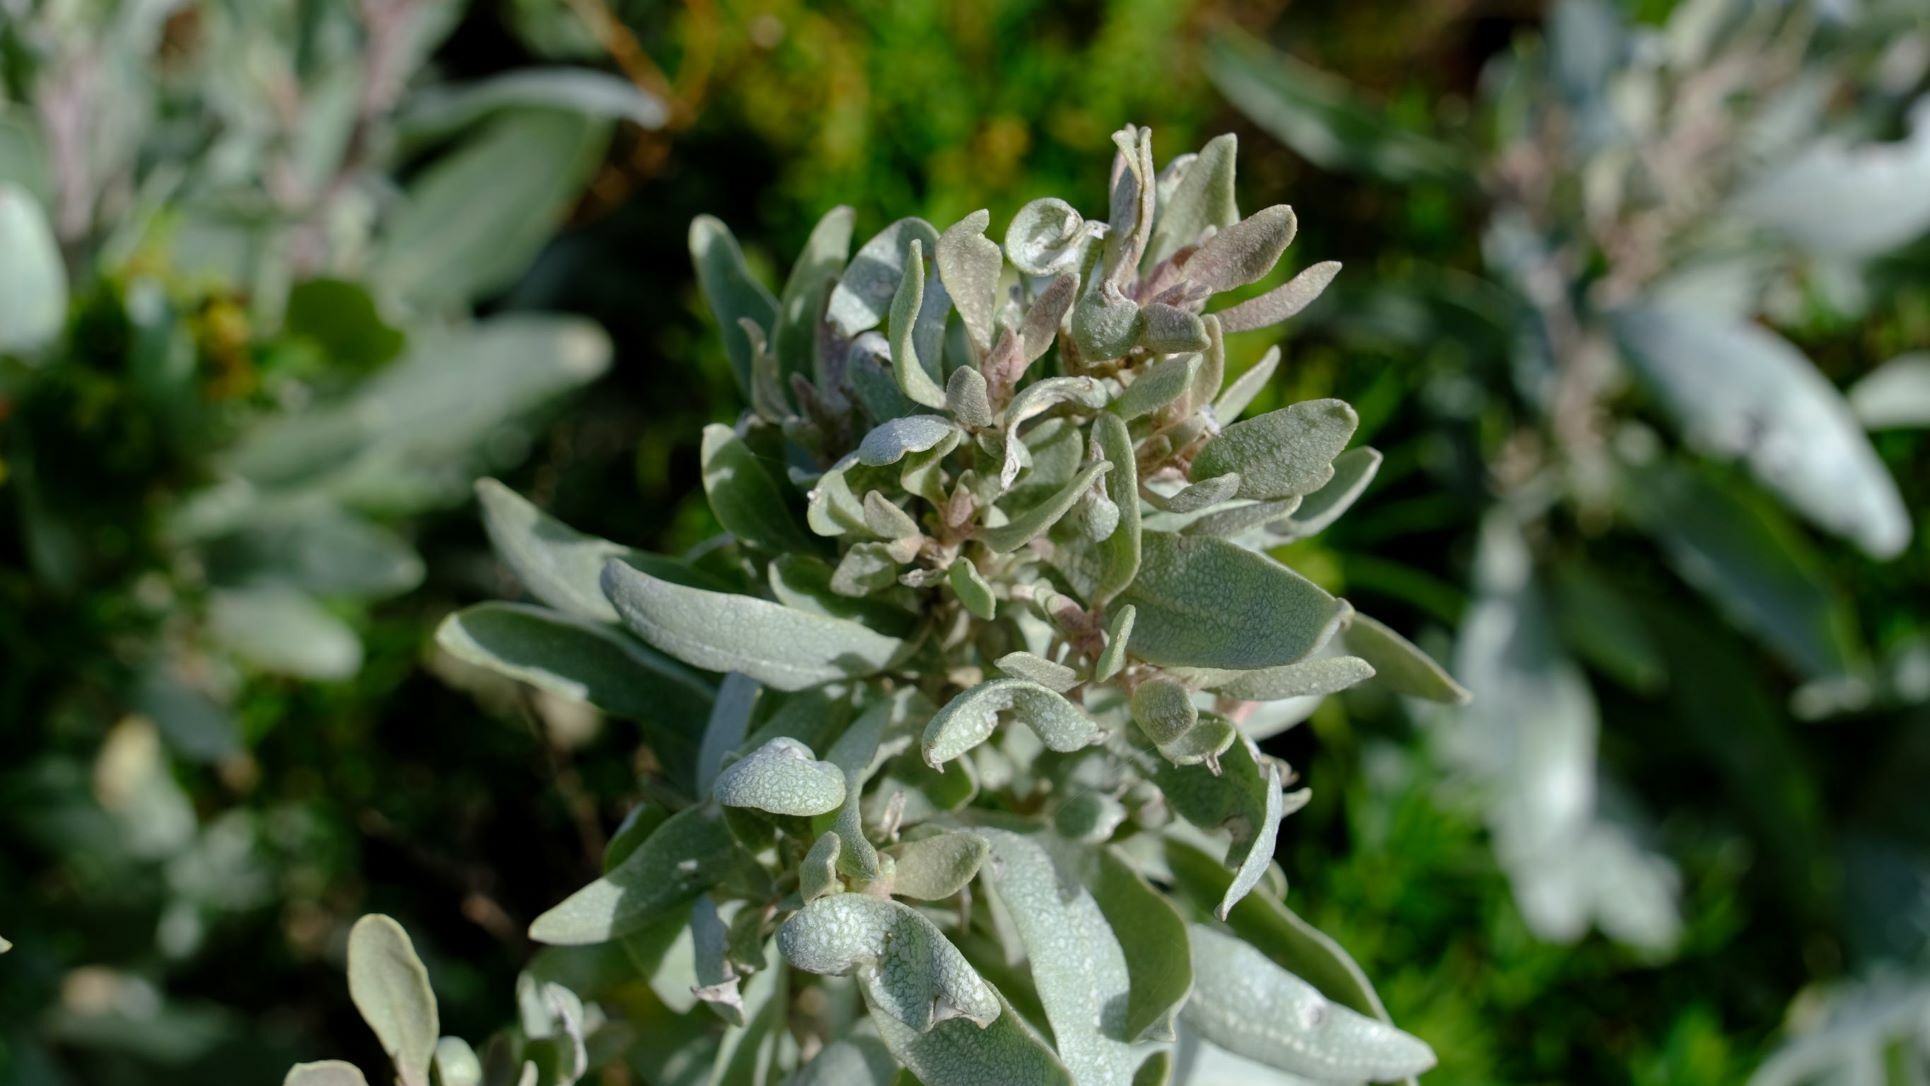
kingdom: Plantae
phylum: Tracheophyta
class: Magnoliopsida
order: Caryophyllales
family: Amaranthaceae
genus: Atriplex
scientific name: Atriplex cinerea
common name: Grey saltbush
